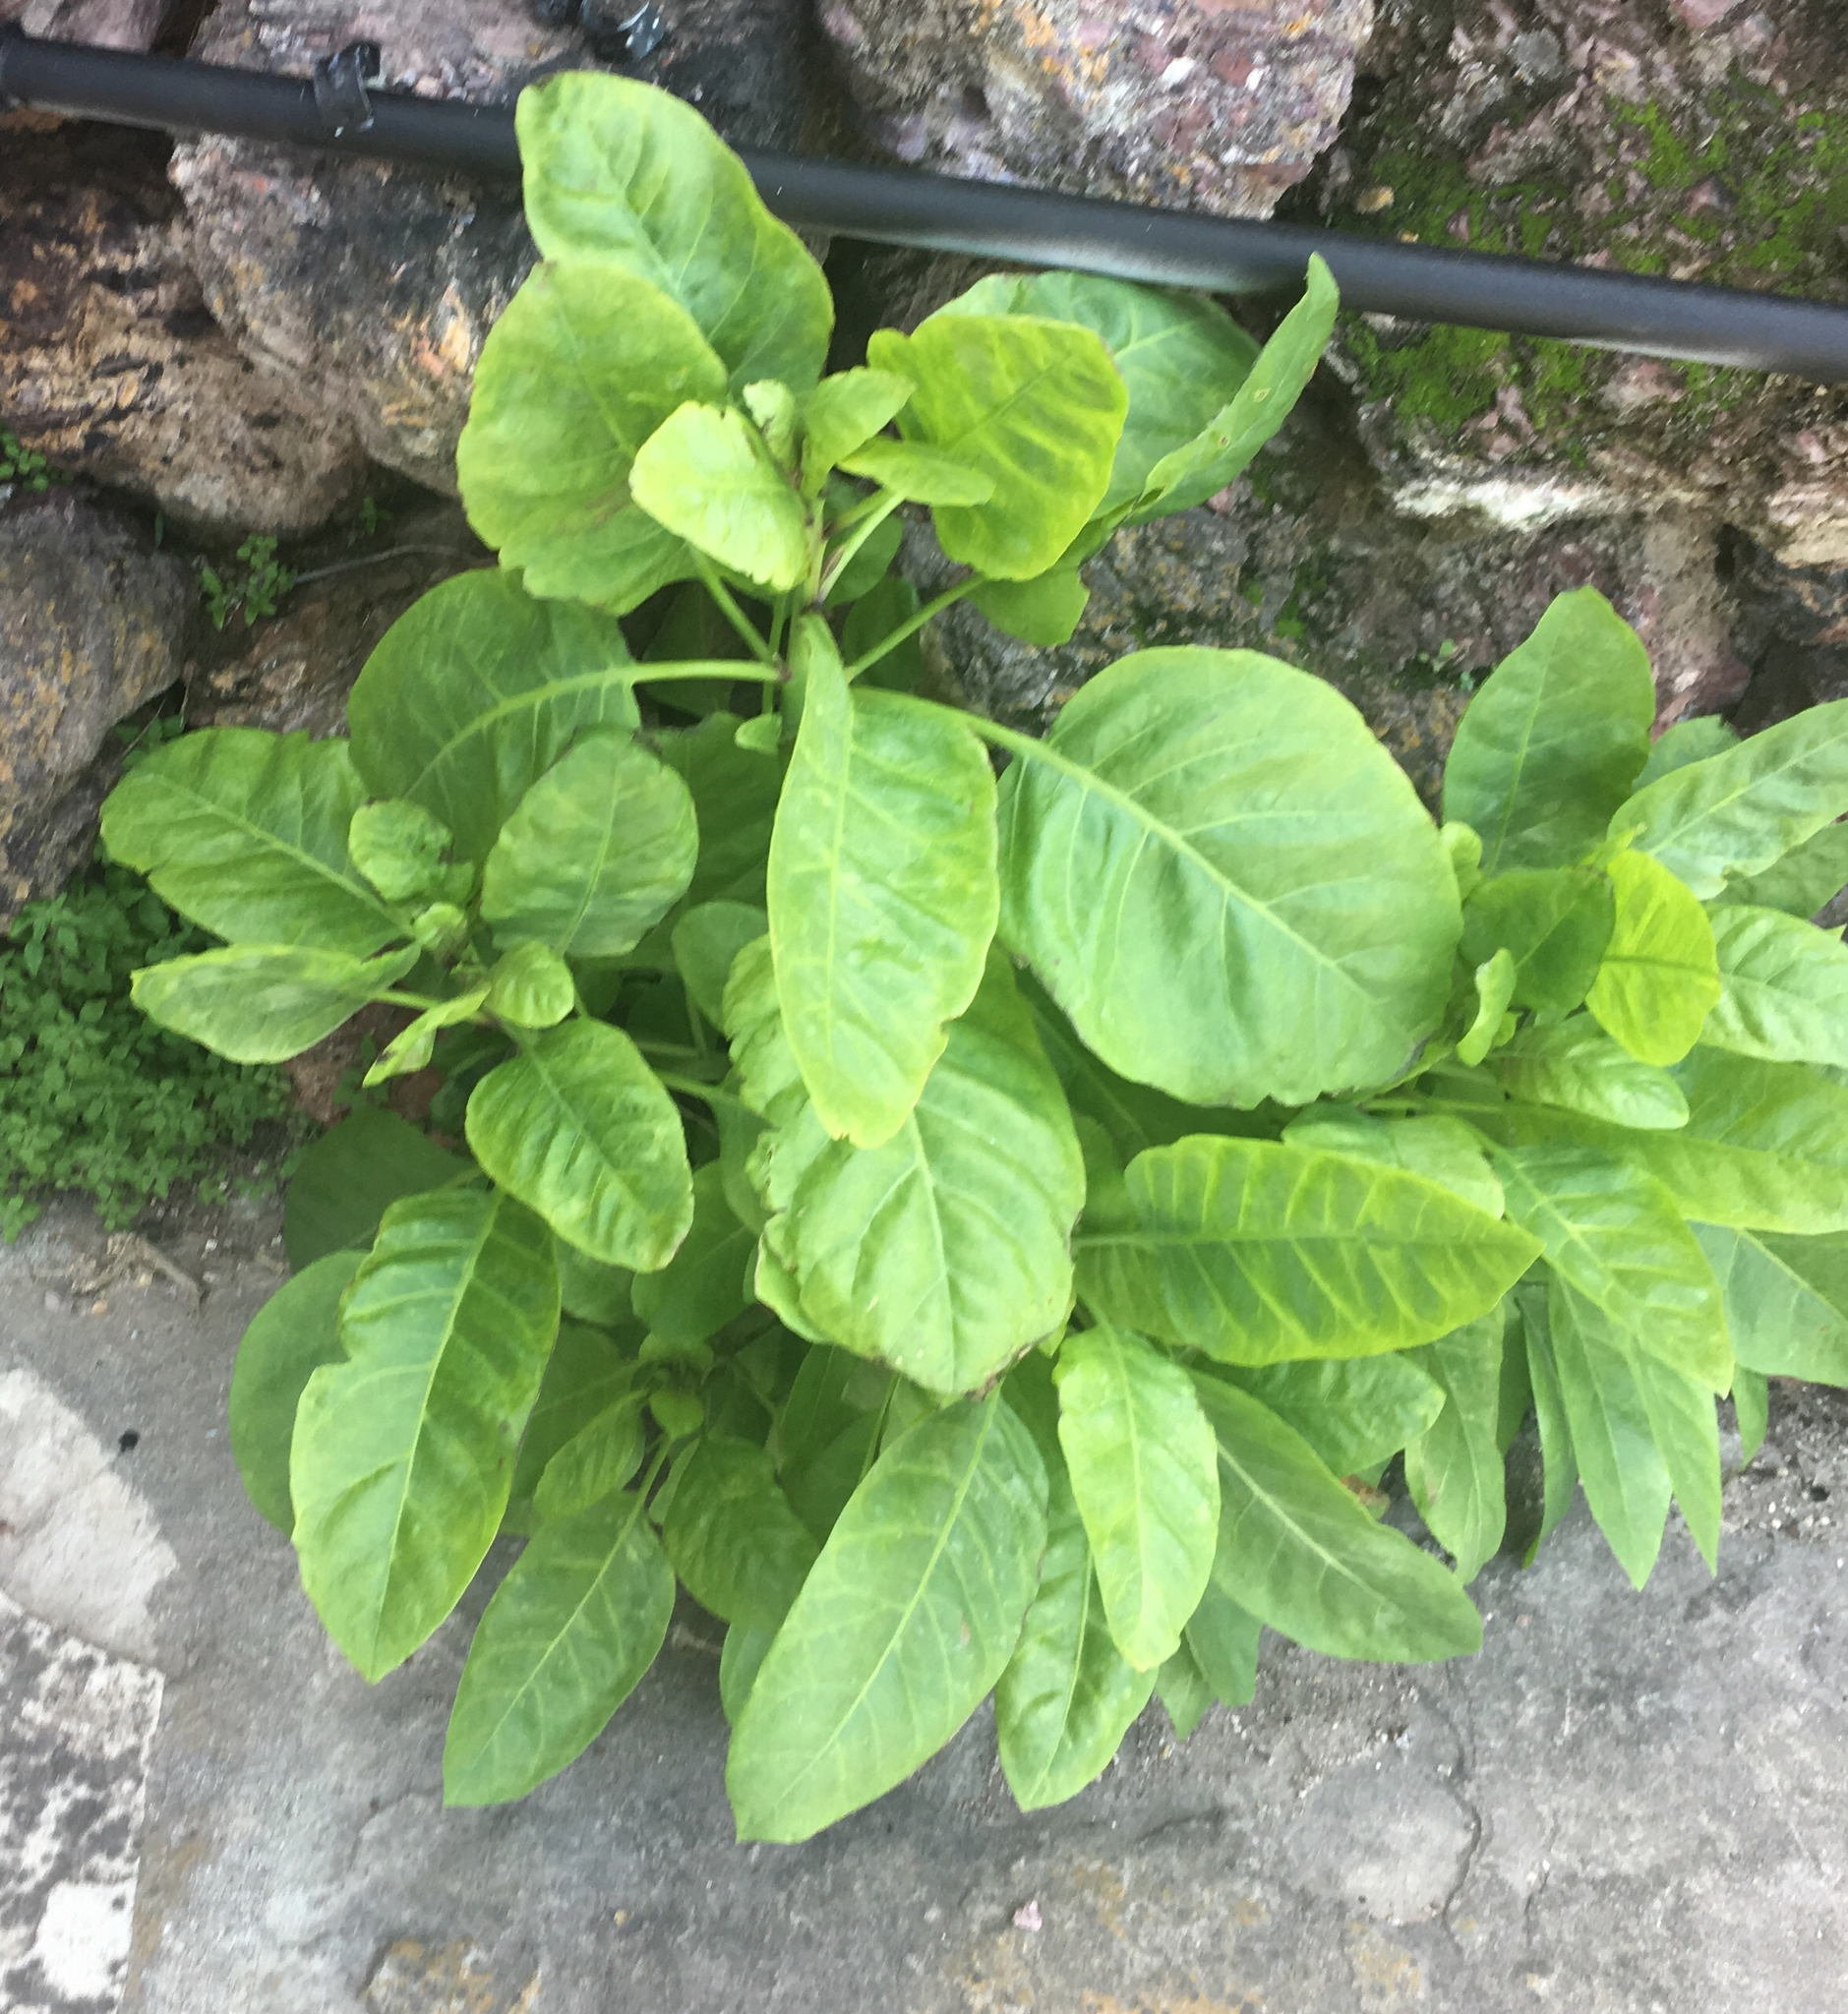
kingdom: Plantae
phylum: Tracheophyta
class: Magnoliopsida
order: Solanales
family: Solanaceae
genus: Nicotiana
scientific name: Nicotiana glauca
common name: Tree tobacco
